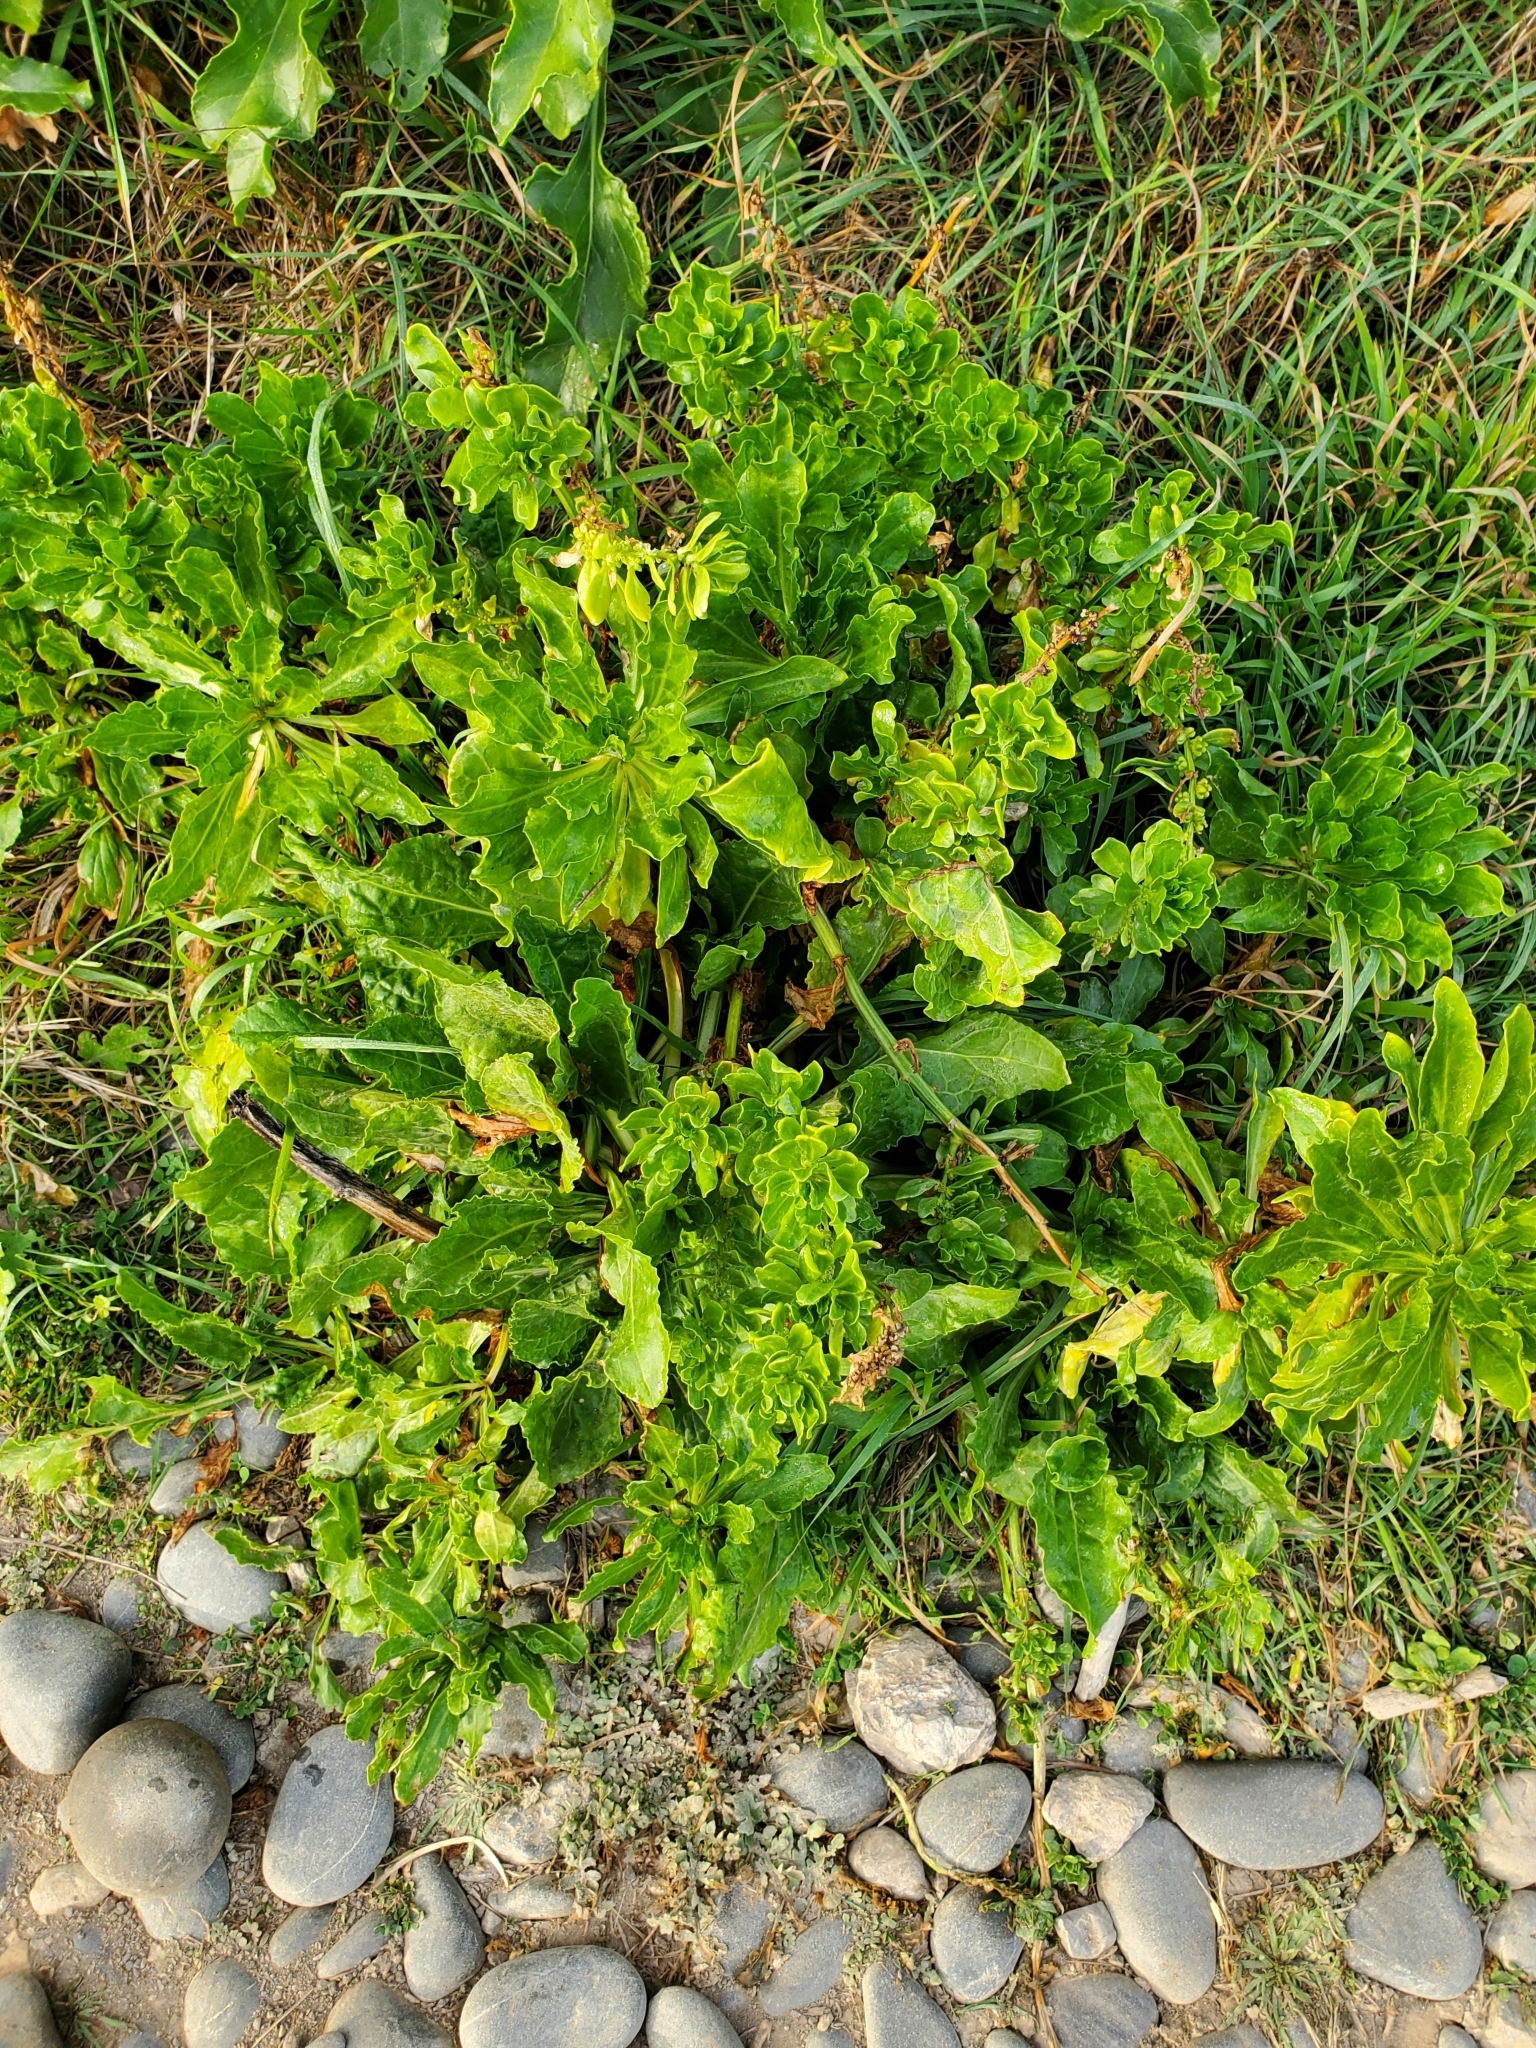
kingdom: Plantae
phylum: Tracheophyta
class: Magnoliopsida
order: Caryophyllales
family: Amaranthaceae
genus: Beta
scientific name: Beta vulgaris
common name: Beet
